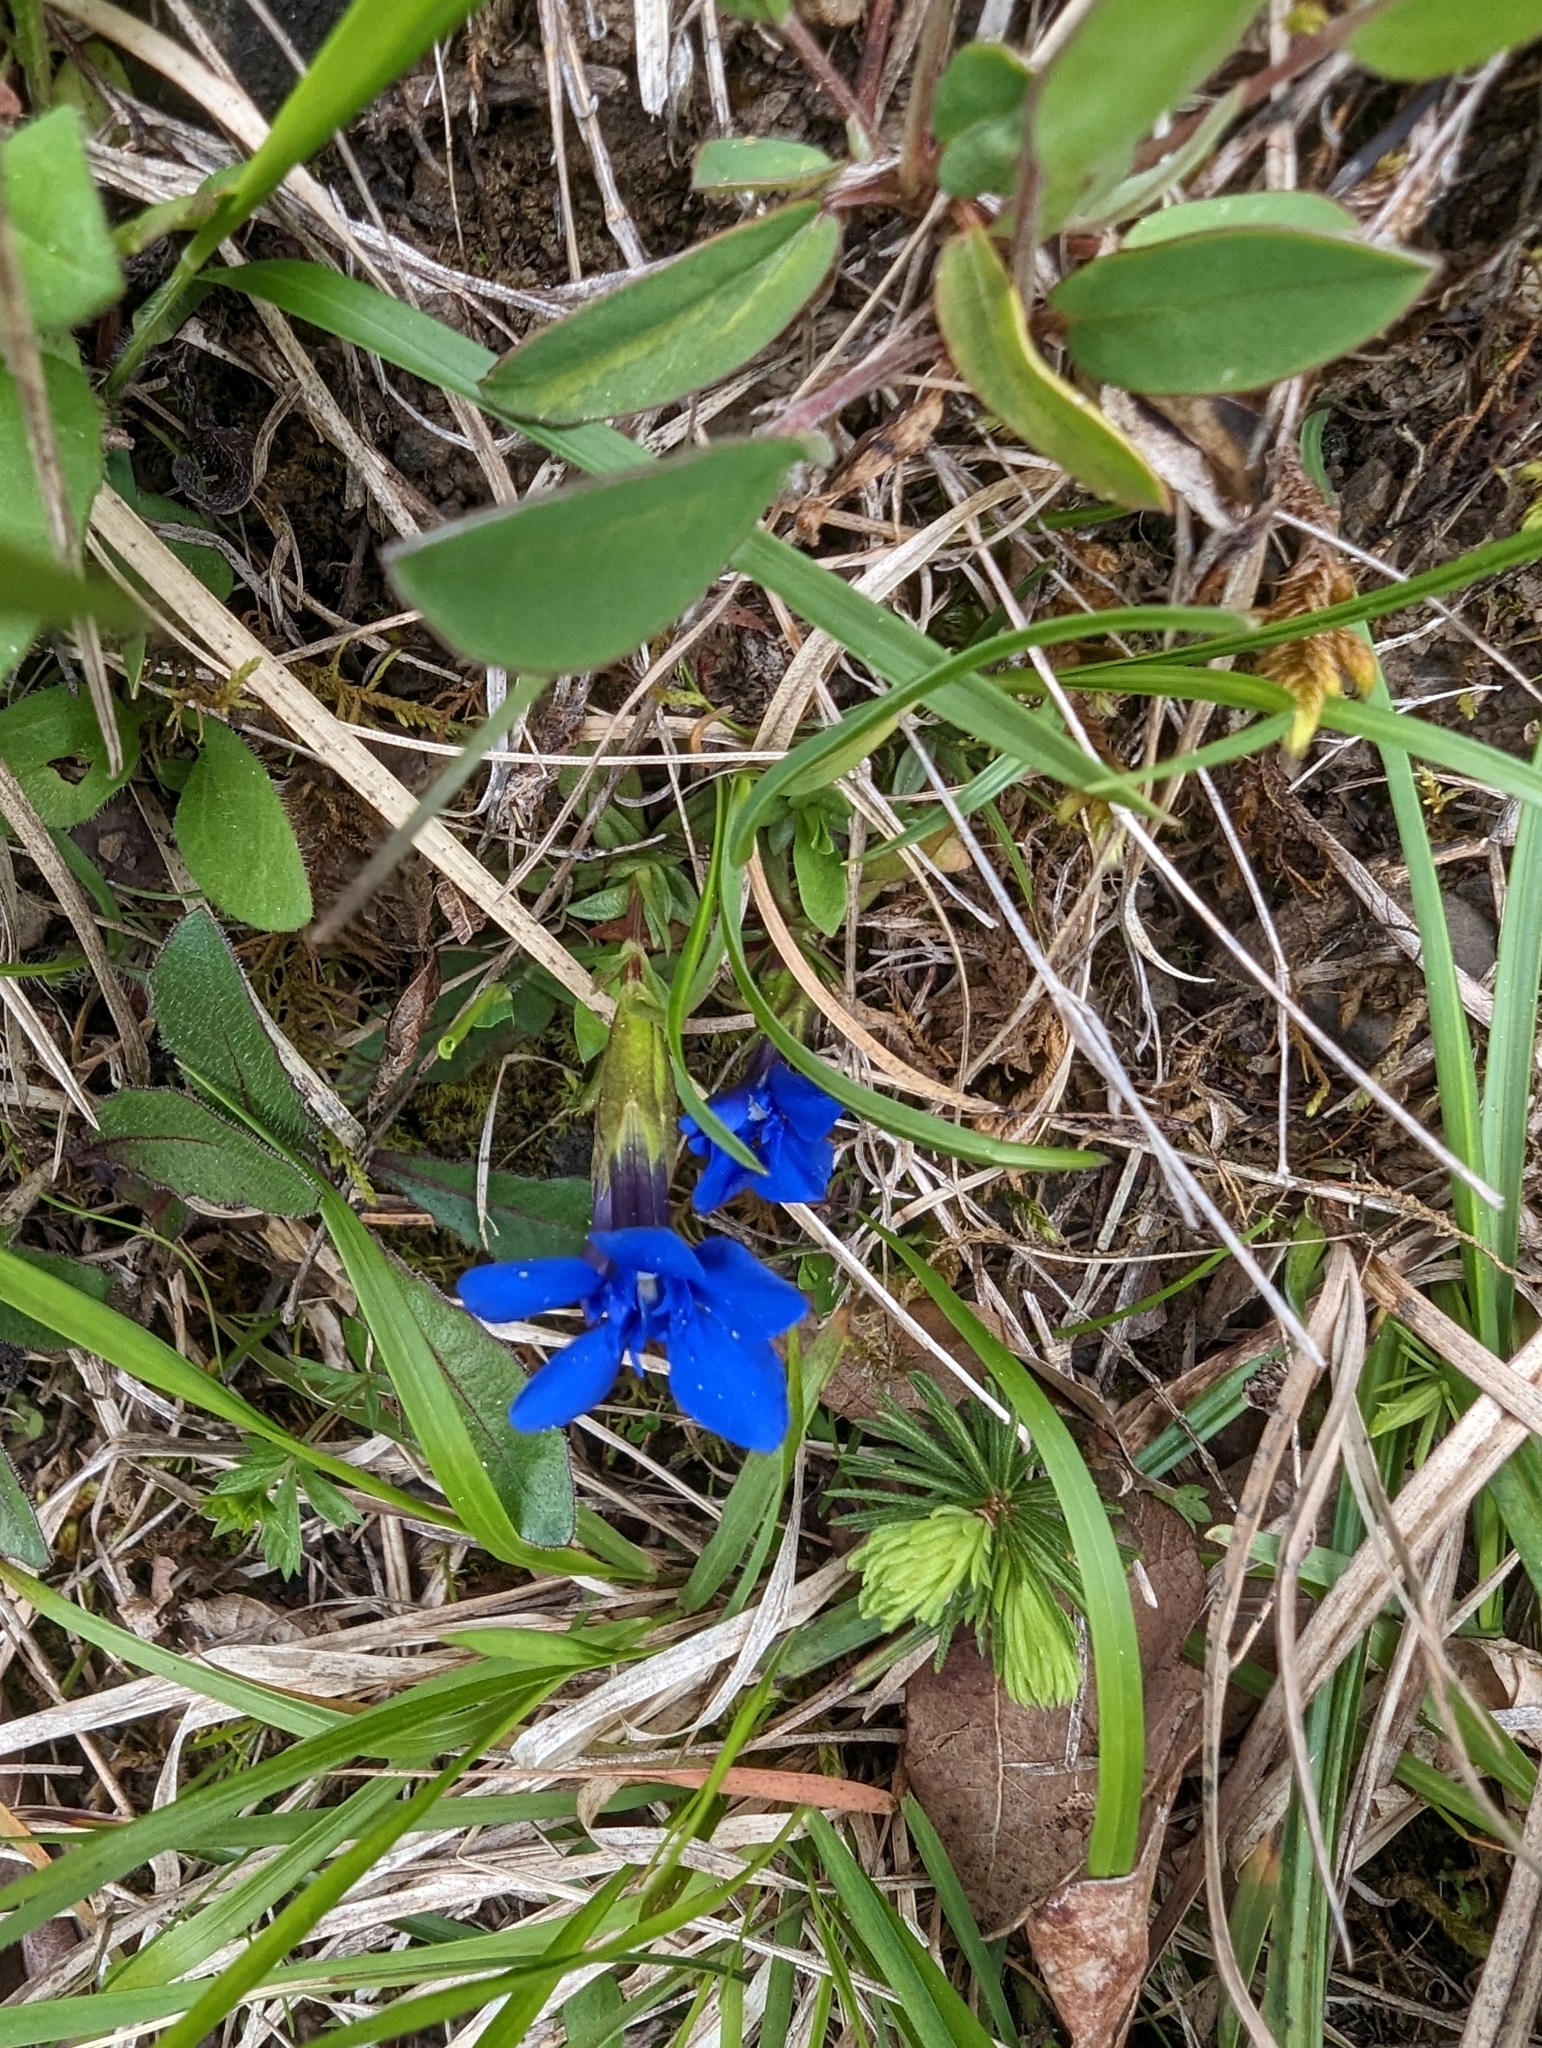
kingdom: Plantae
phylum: Tracheophyta
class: Magnoliopsida
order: Gentianales
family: Gentianaceae
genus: Gentiana
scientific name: Gentiana verna
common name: Spring gentian
